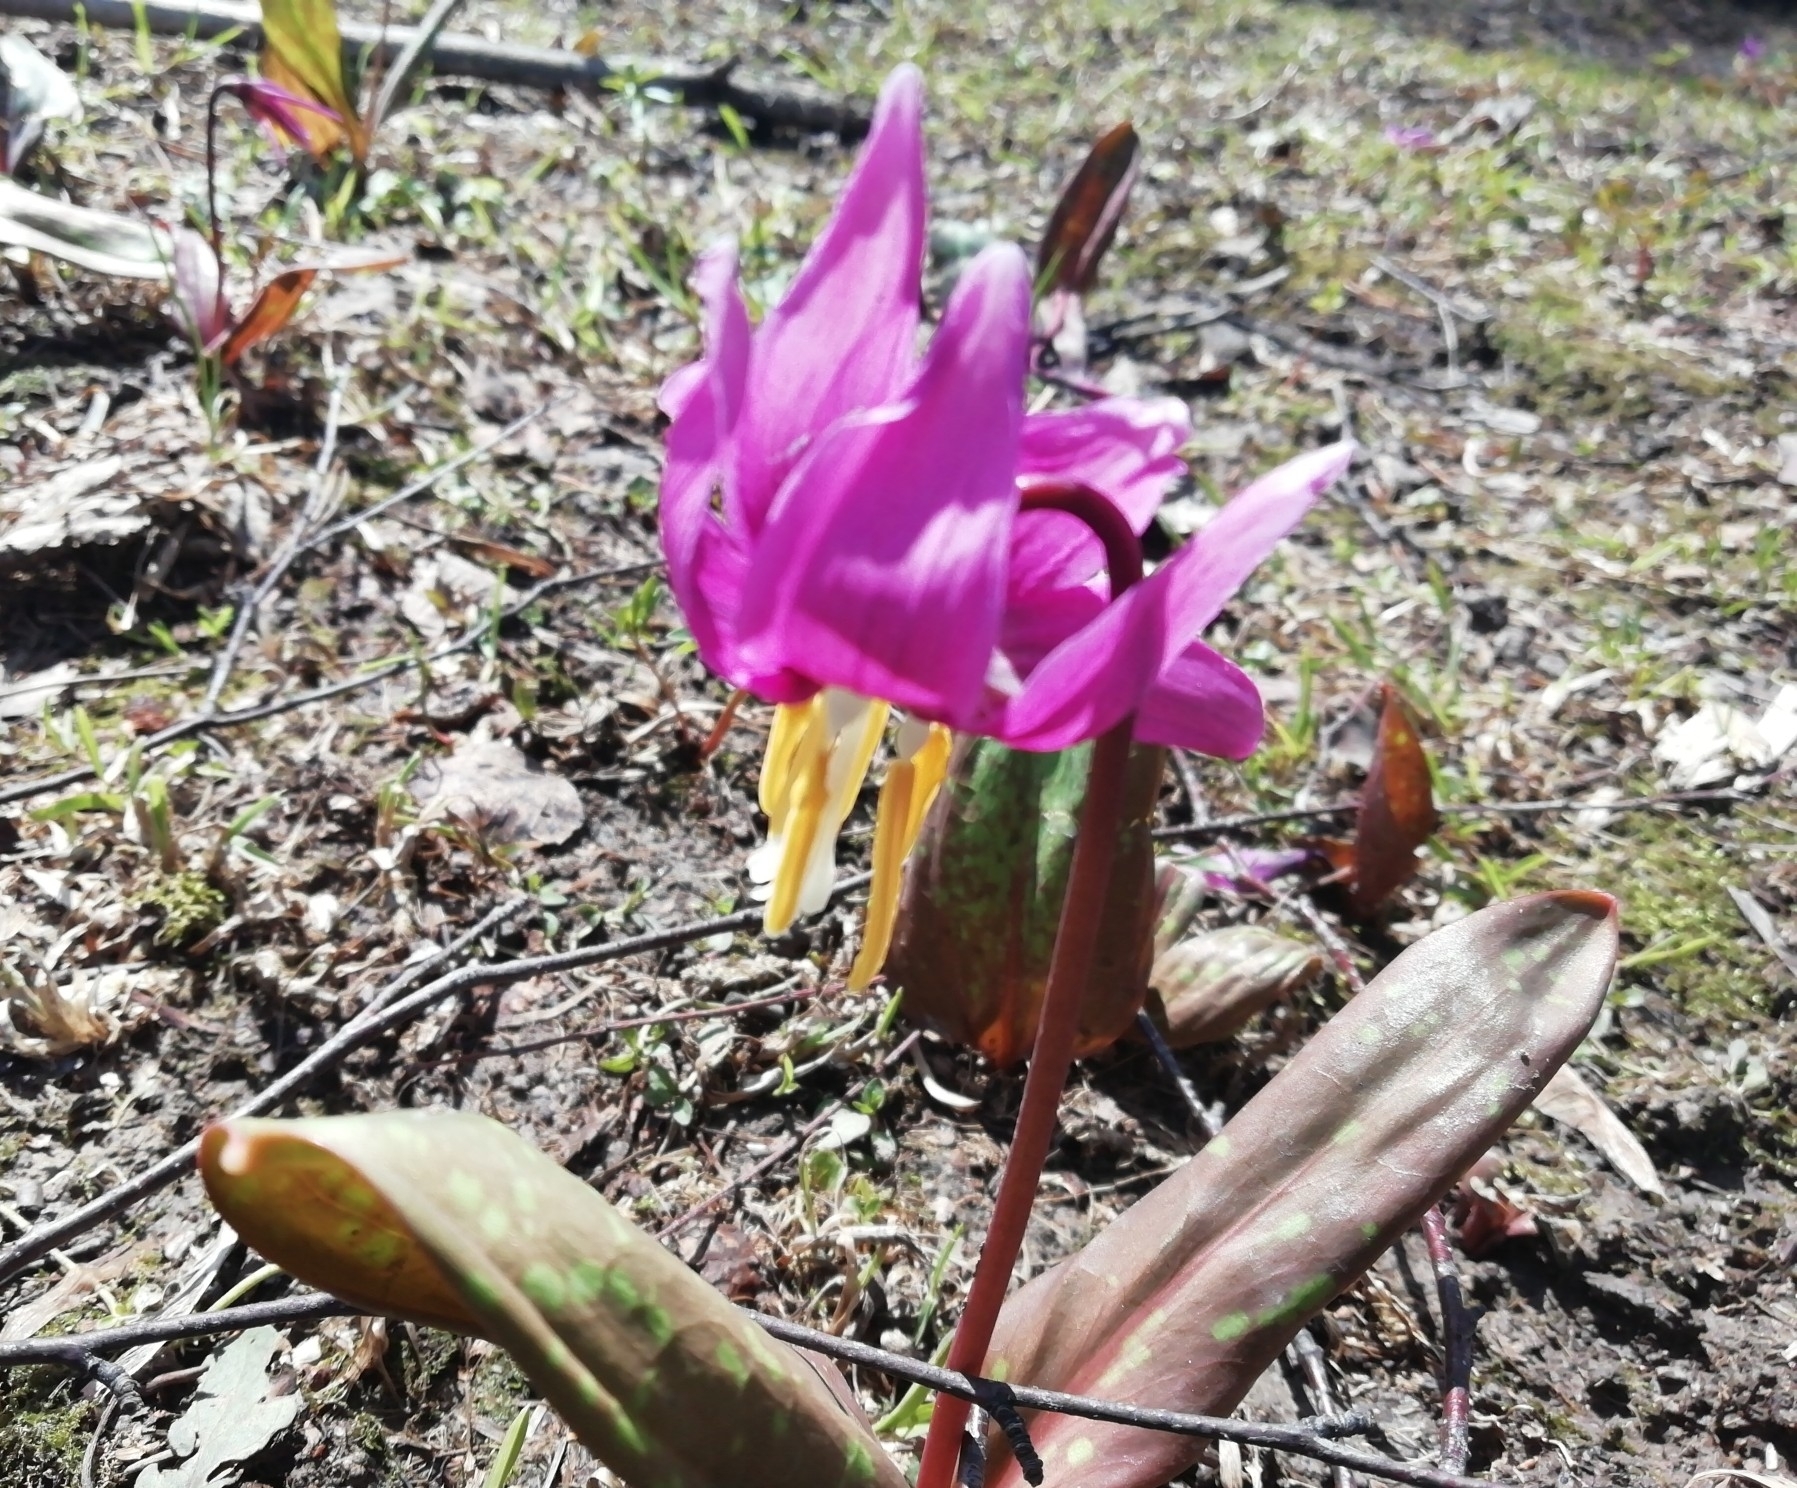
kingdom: Plantae
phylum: Tracheophyta
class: Liliopsida
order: Liliales
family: Liliaceae
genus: Erythronium
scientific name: Erythronium sibiricum
